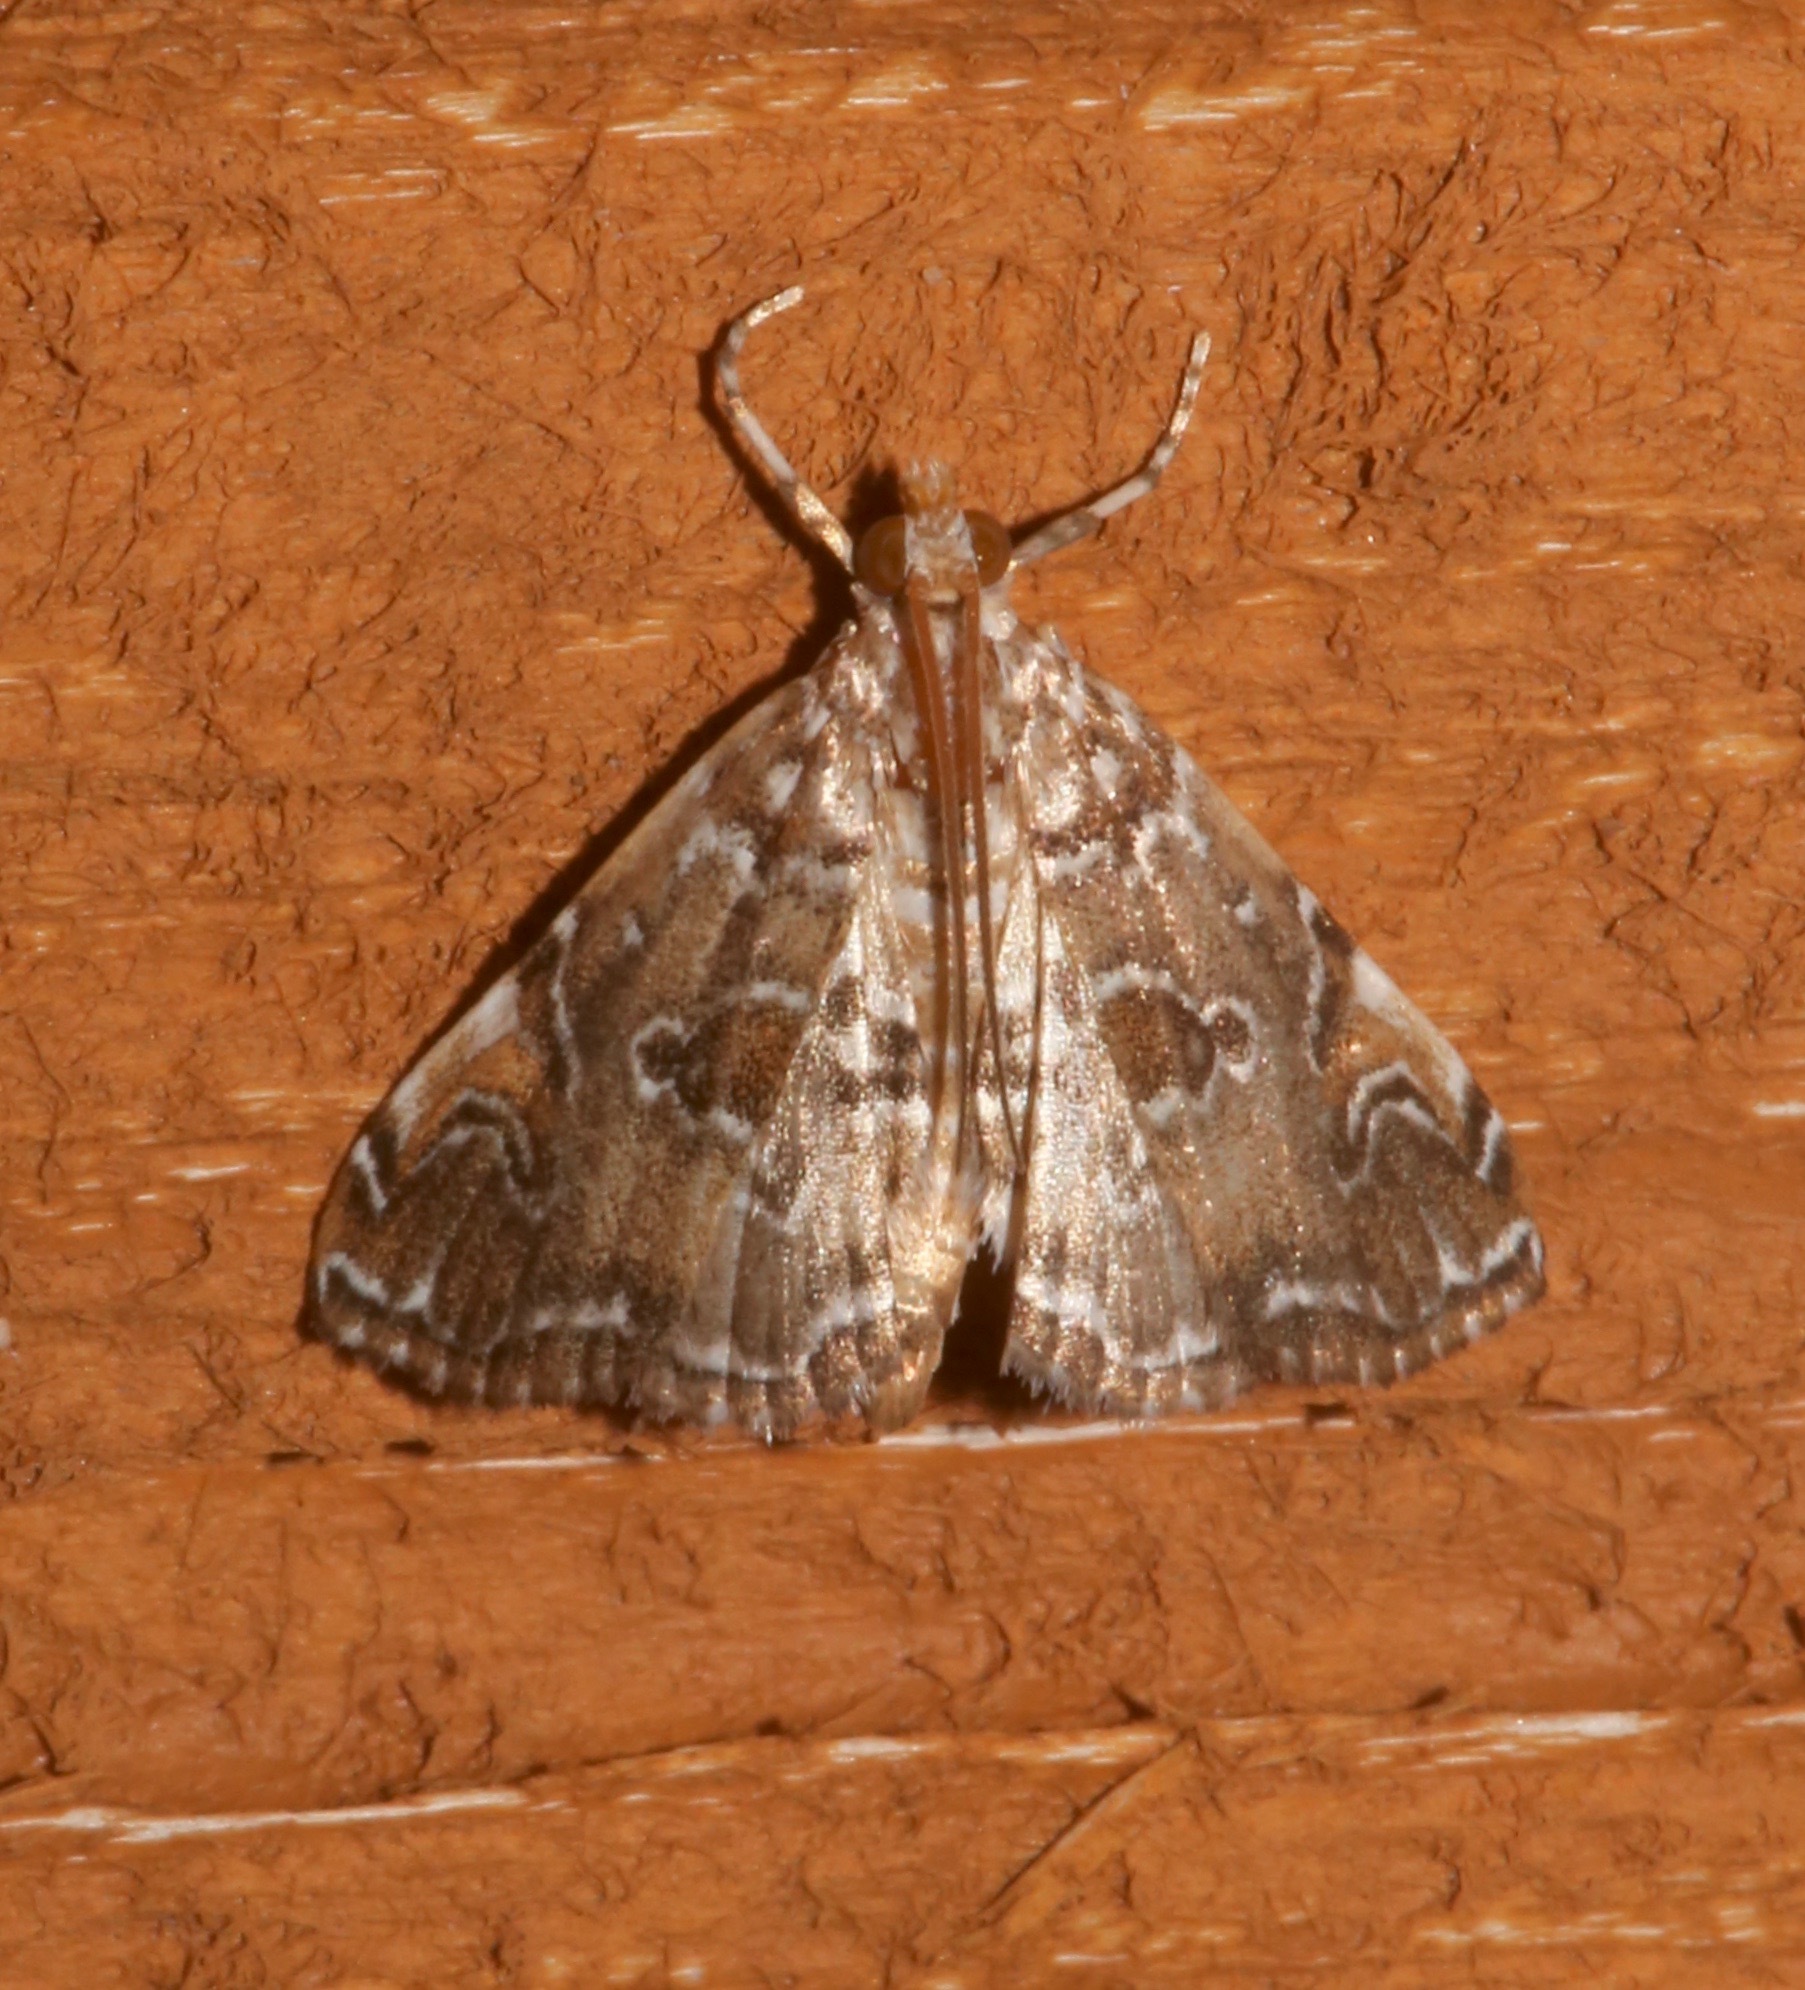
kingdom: Animalia
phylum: Arthropoda
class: Insecta
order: Lepidoptera
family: Crambidae
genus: Elophila
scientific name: Elophila gyralis
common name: Waterlily borer moth
